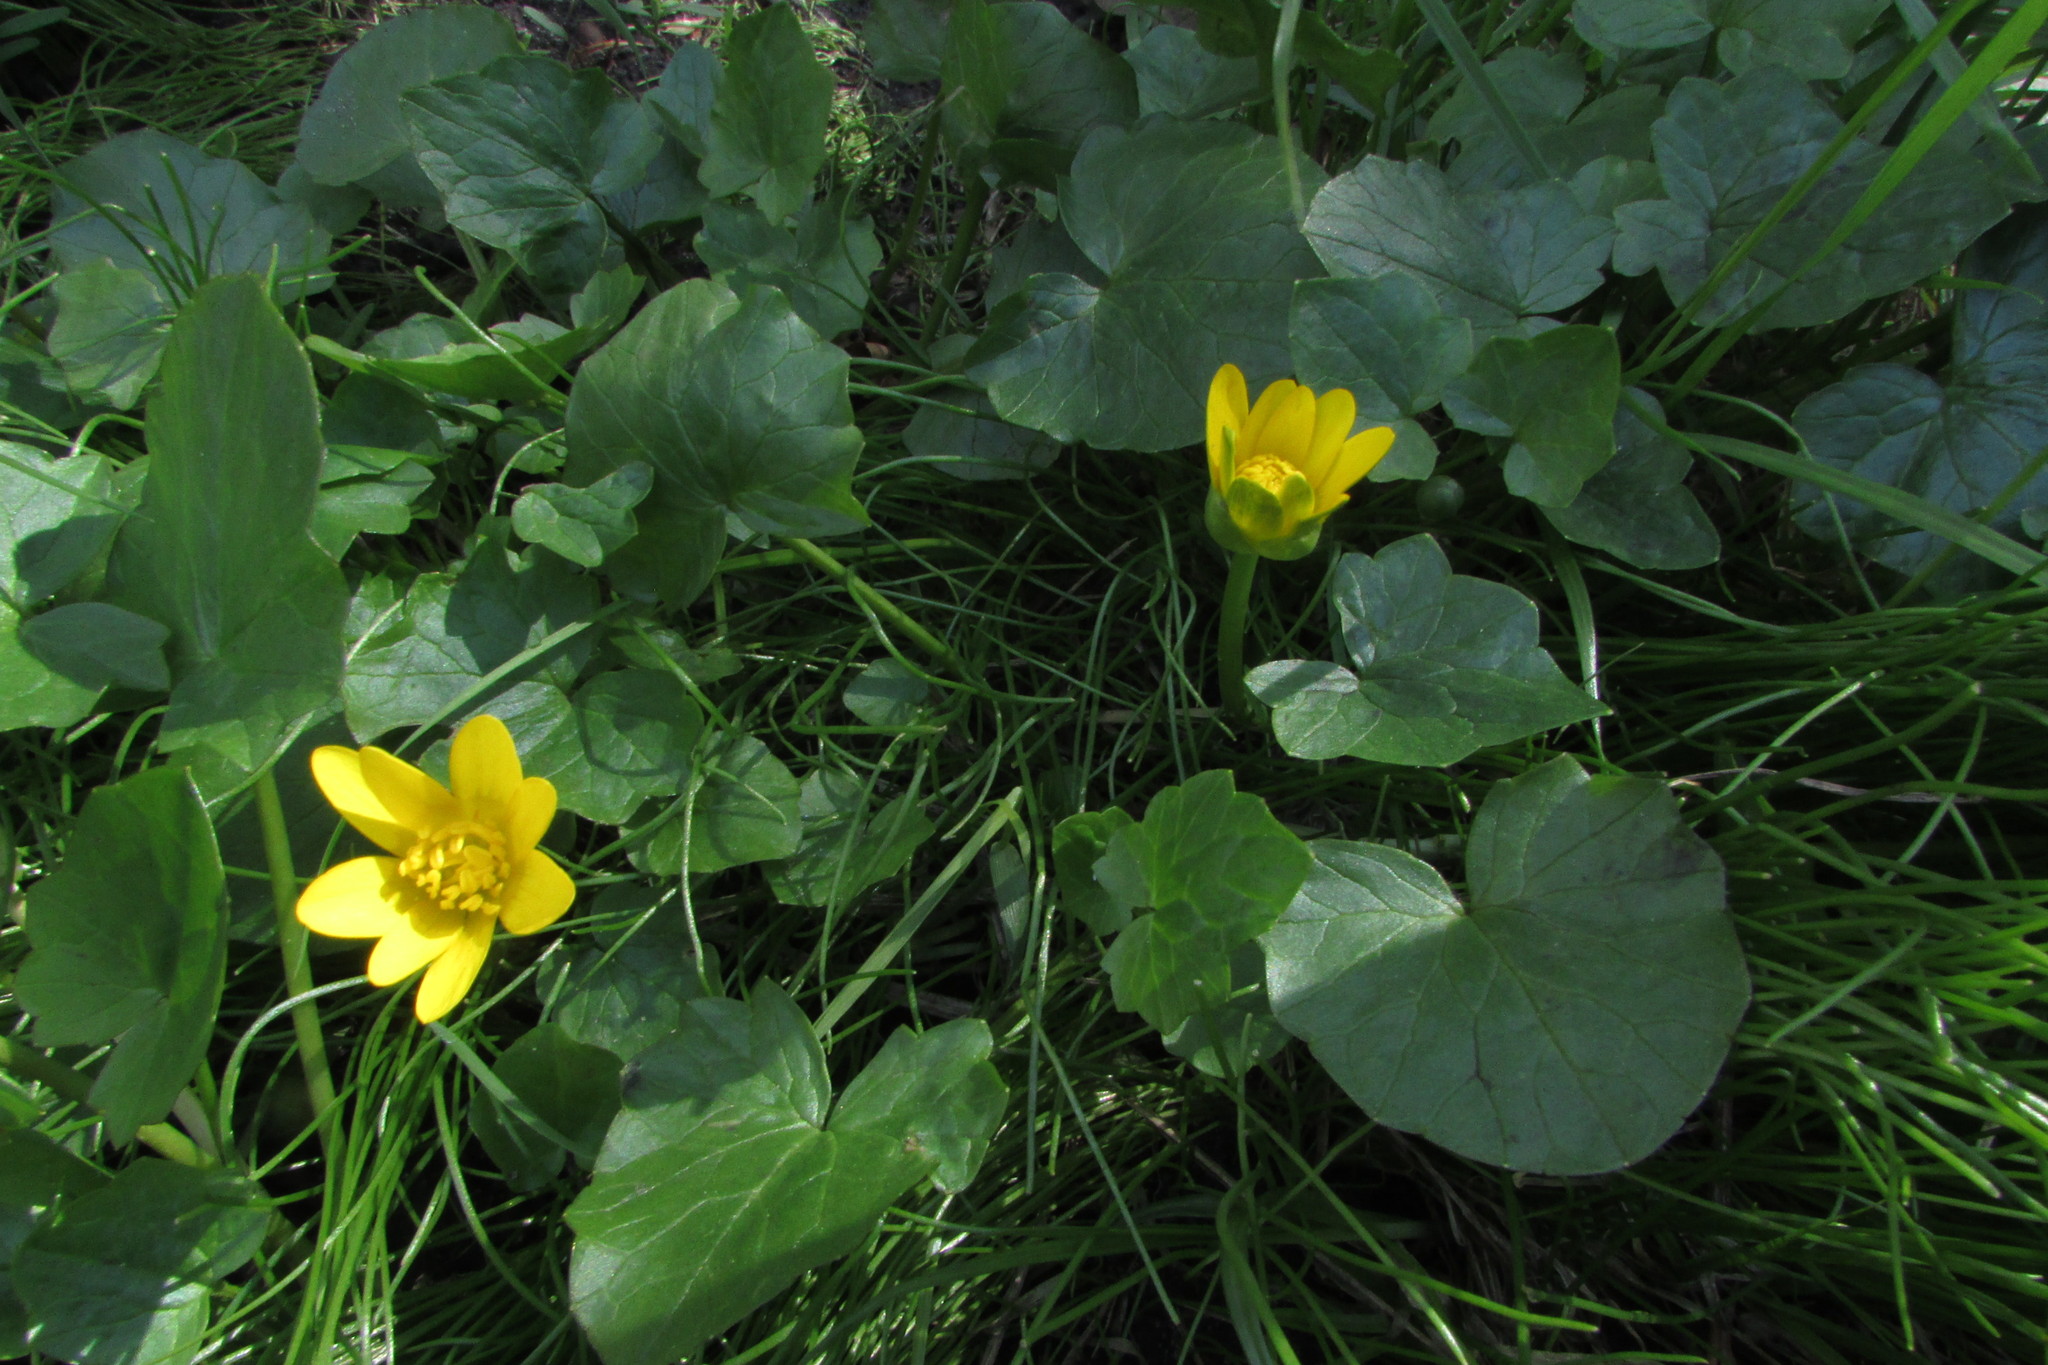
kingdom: Plantae
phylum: Tracheophyta
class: Magnoliopsida
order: Ranunculales
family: Ranunculaceae
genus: Ficaria
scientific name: Ficaria verna
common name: Lesser celandine
